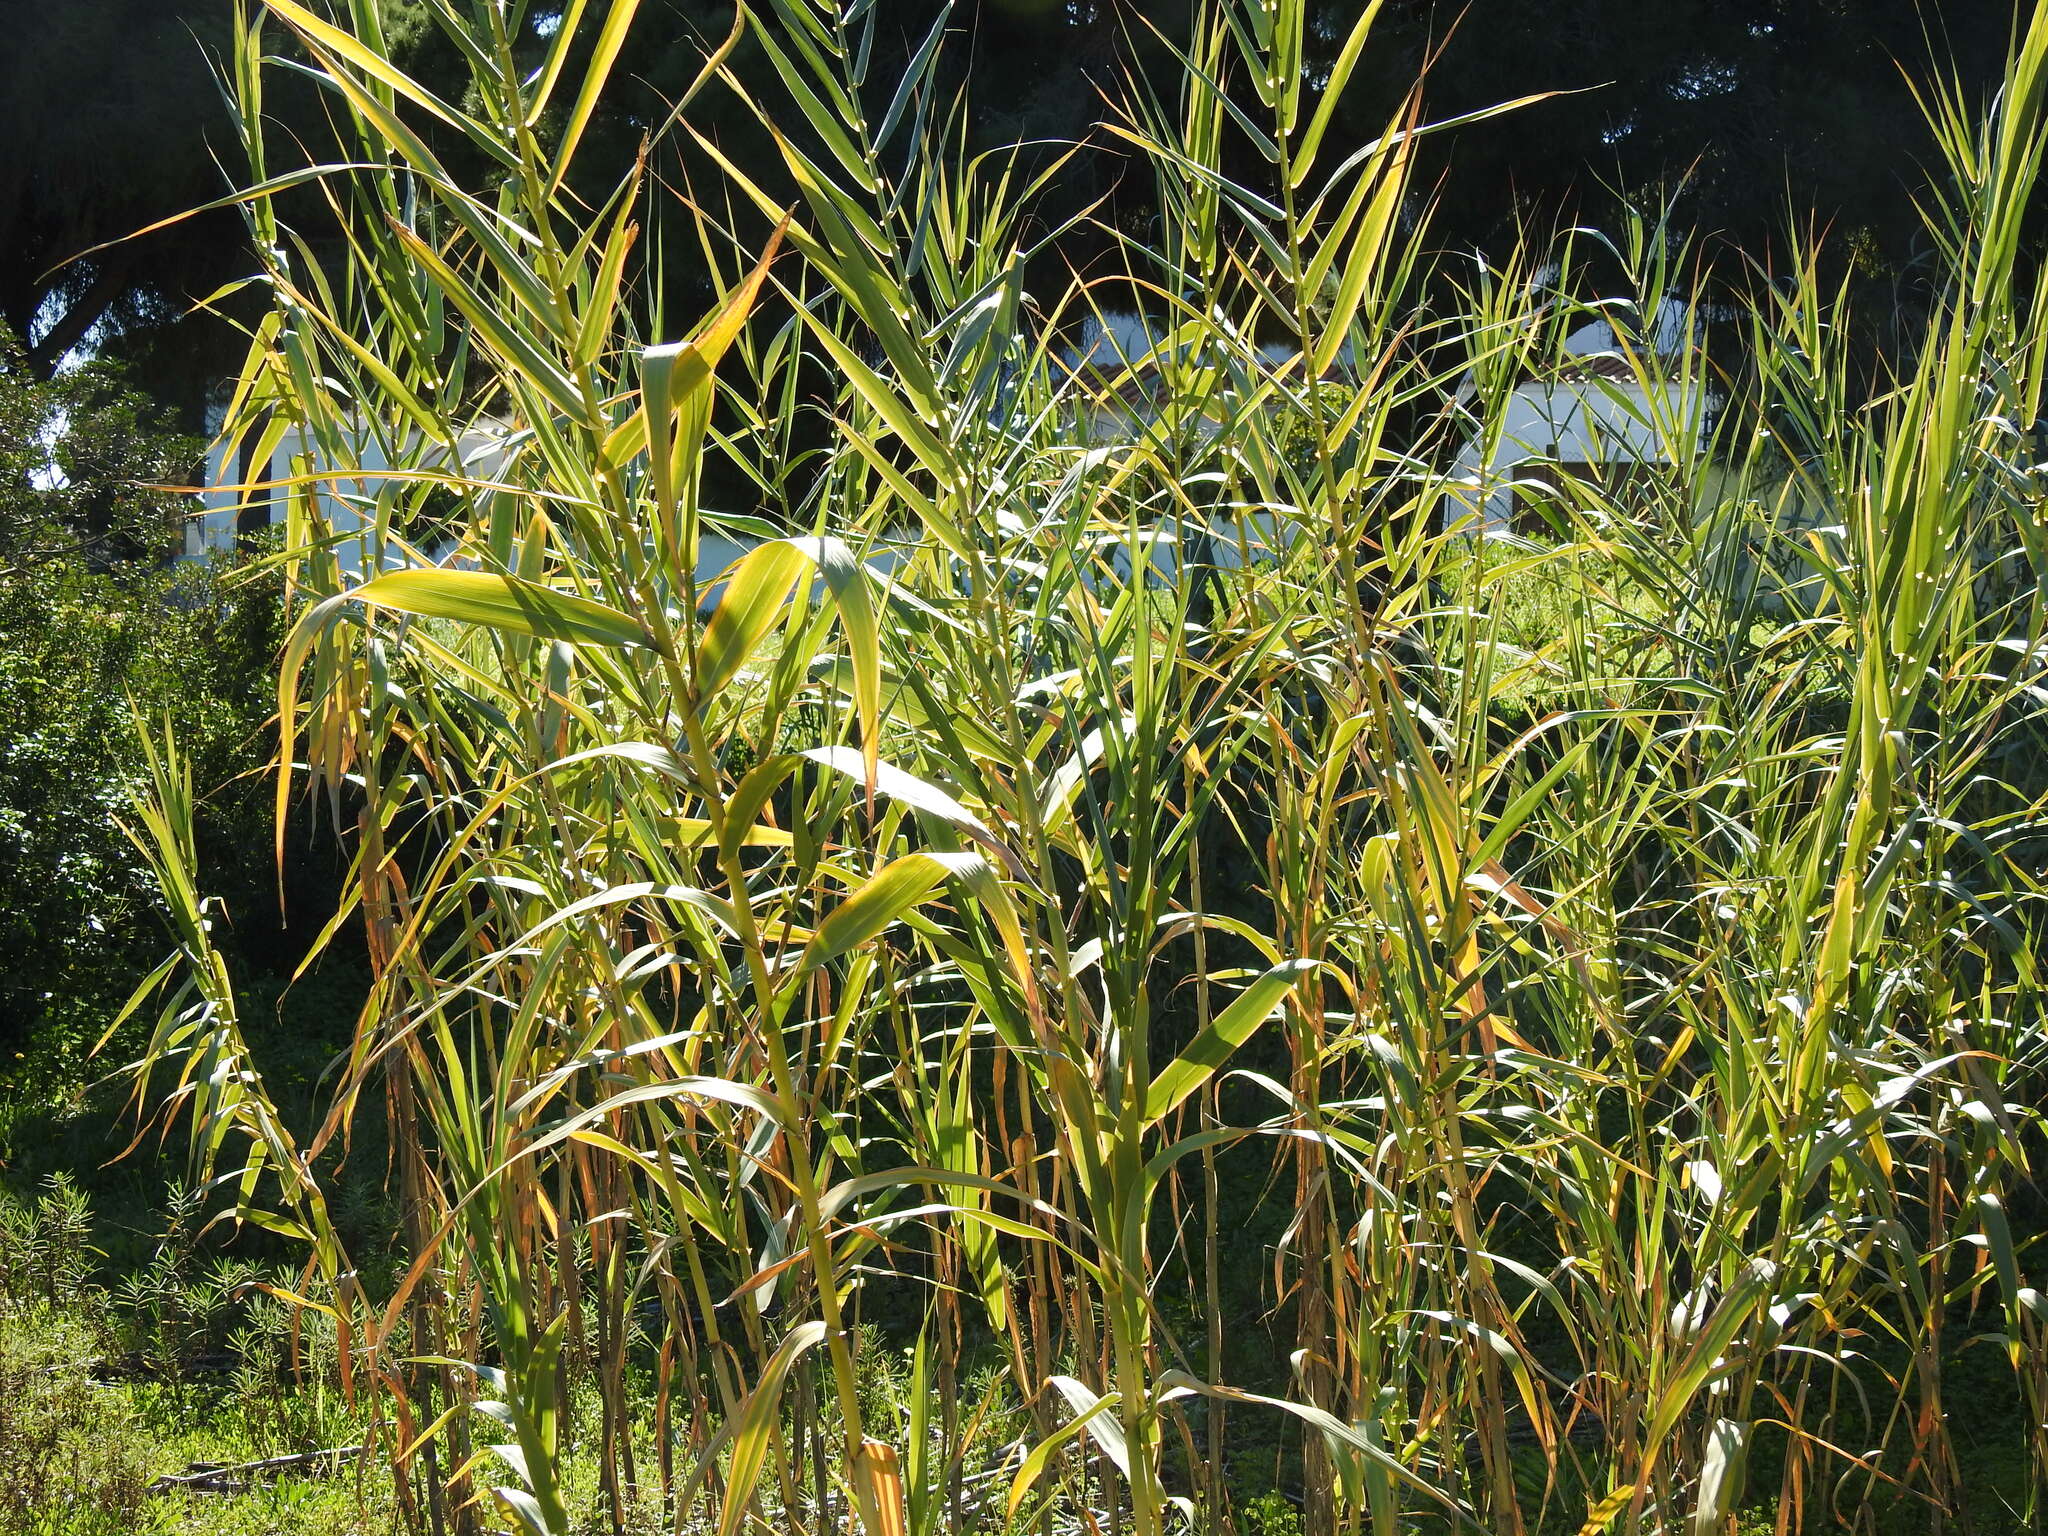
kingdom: Plantae
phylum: Tracheophyta
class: Liliopsida
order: Poales
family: Poaceae
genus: Arundo
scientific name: Arundo donax
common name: Giant reed
